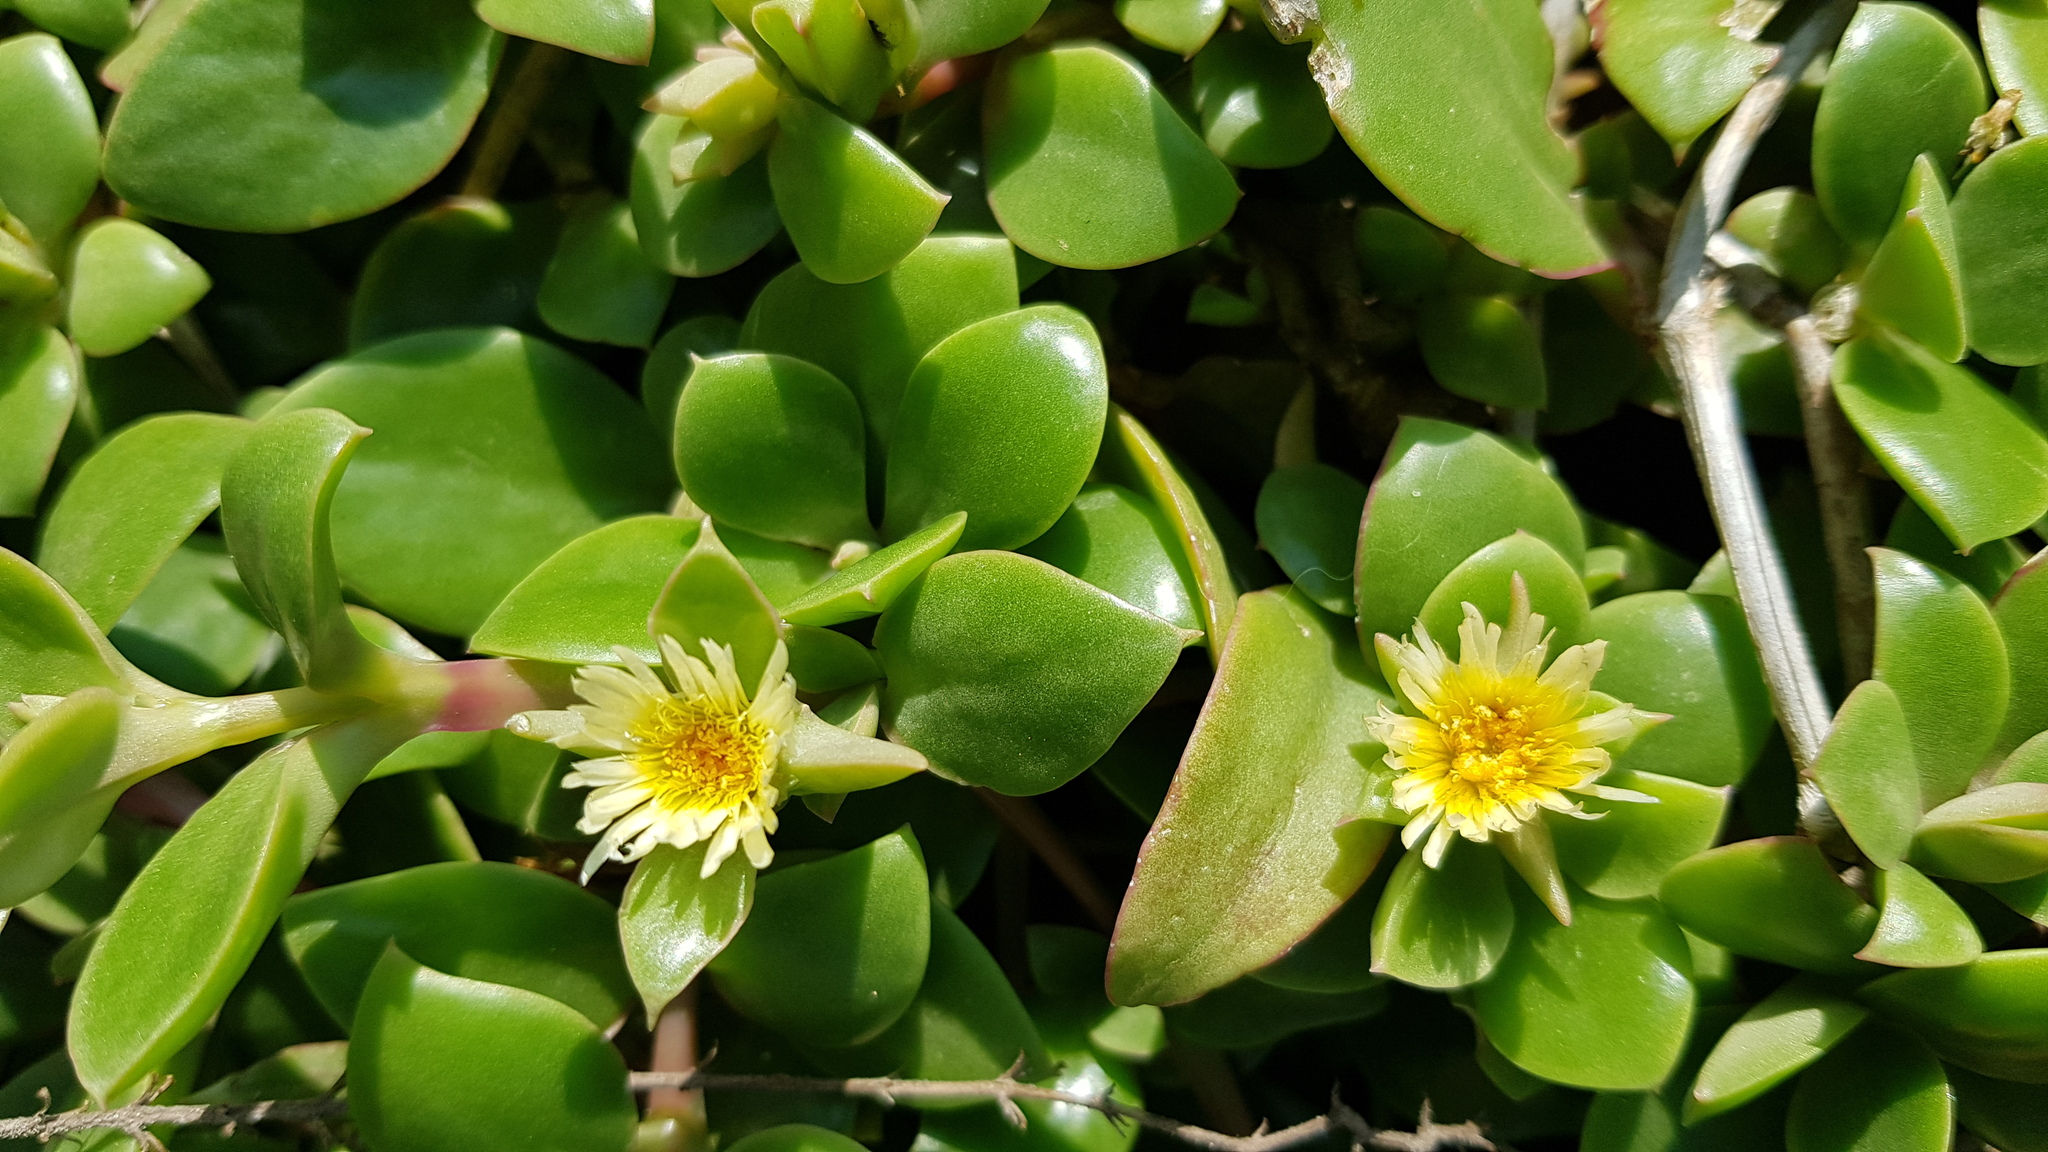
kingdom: Plantae
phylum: Tracheophyta
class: Magnoliopsida
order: Caryophyllales
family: Aizoaceae
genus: Delosperma
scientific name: Delosperma tradescantioides
